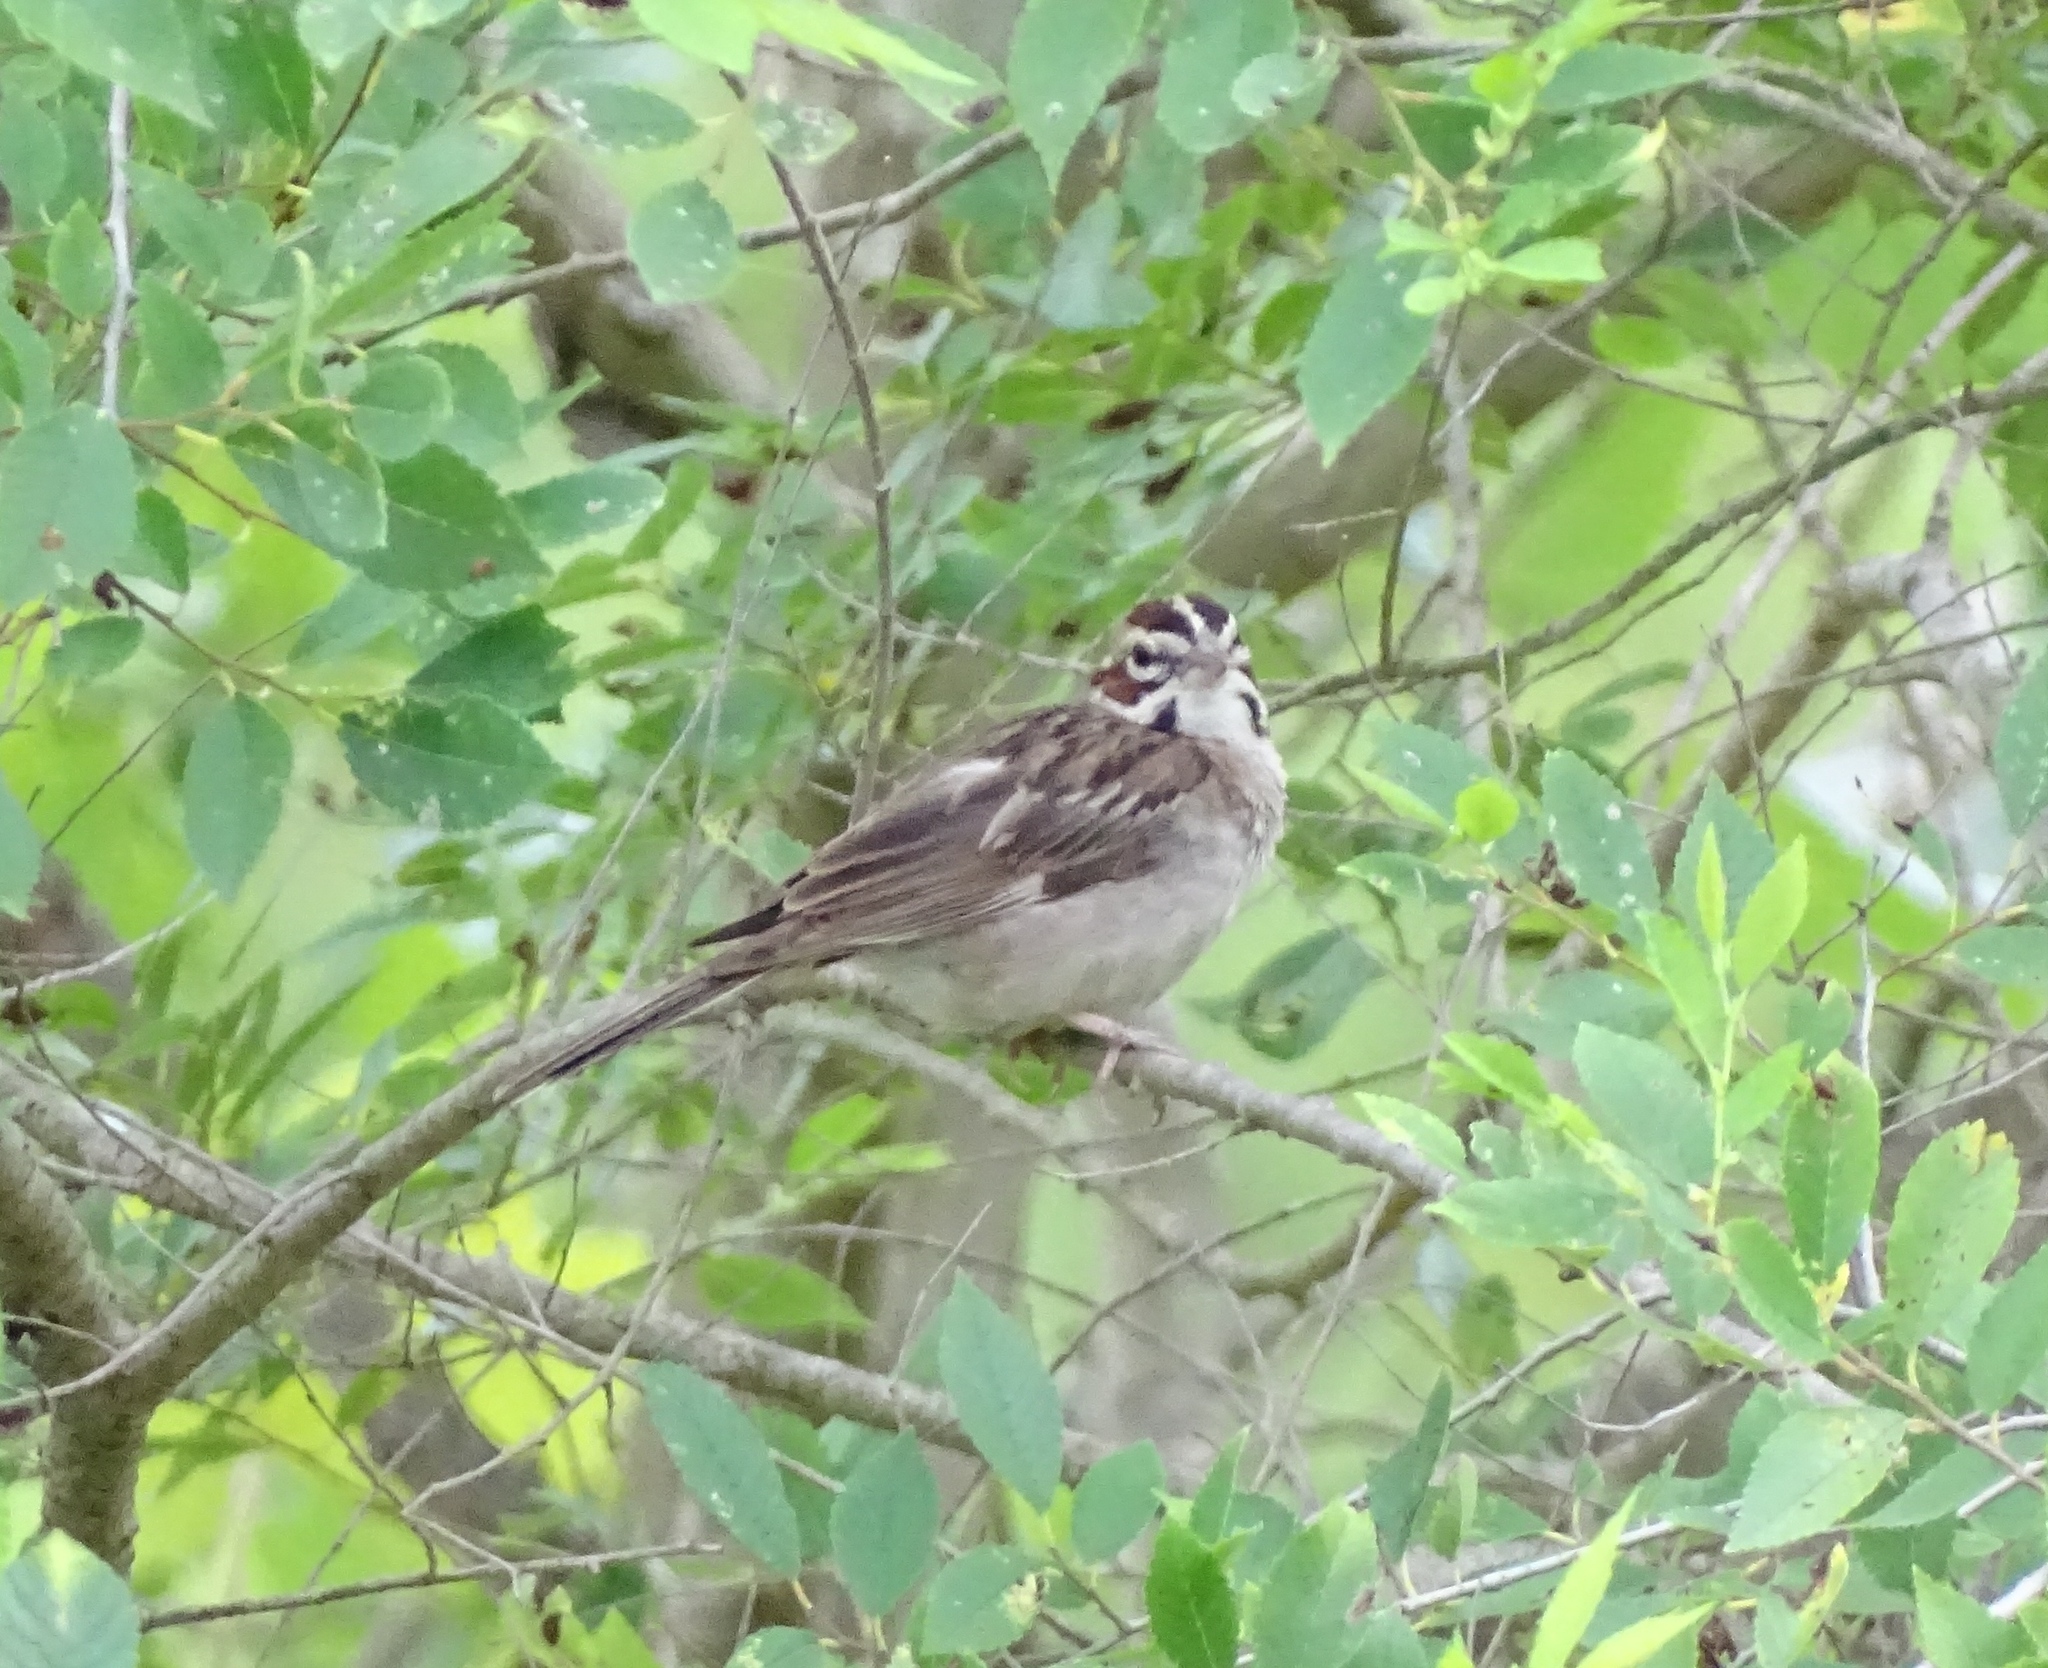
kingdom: Animalia
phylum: Chordata
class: Aves
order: Passeriformes
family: Passerellidae
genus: Chondestes
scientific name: Chondestes grammacus
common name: Lark sparrow
